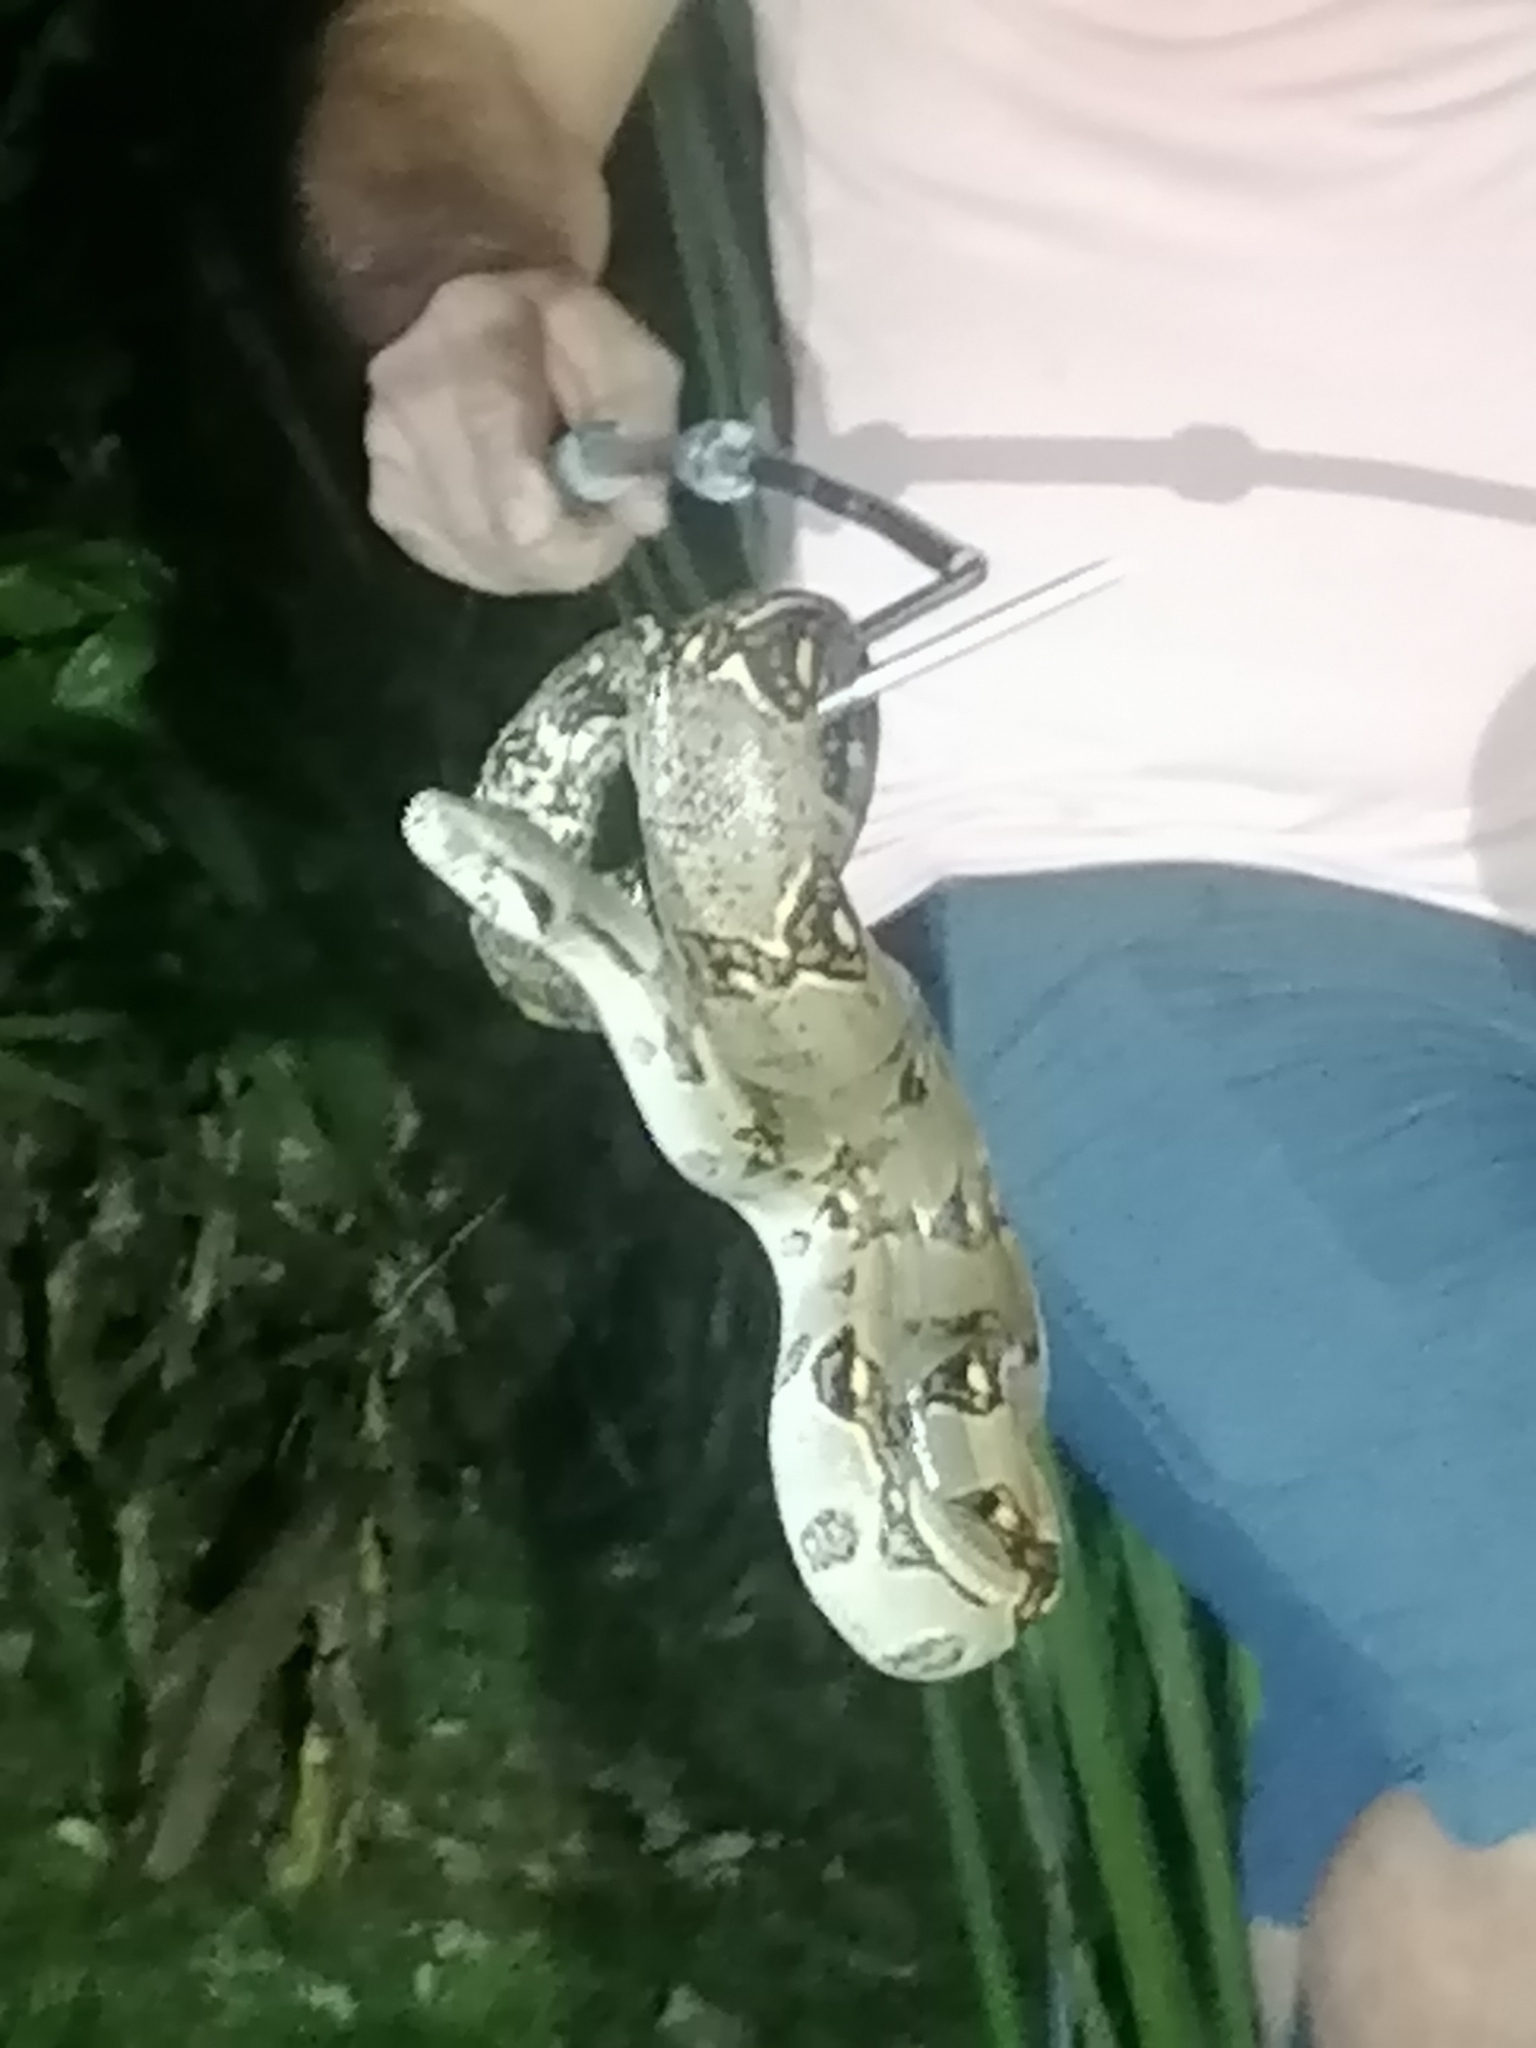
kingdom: Animalia
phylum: Chordata
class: Squamata
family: Boidae
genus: Boa
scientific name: Boa imperator
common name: Central american boa
